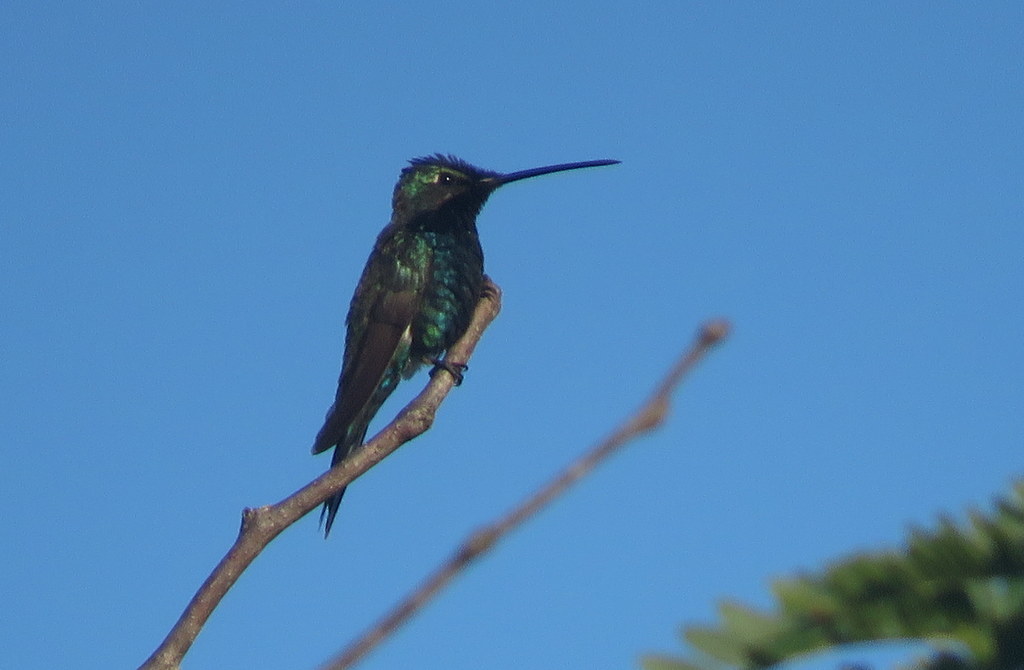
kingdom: Animalia
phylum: Chordata
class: Aves
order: Apodiformes
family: Trochilidae
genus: Heliomaster
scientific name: Heliomaster furcifer
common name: Blue-tufted starthroat
